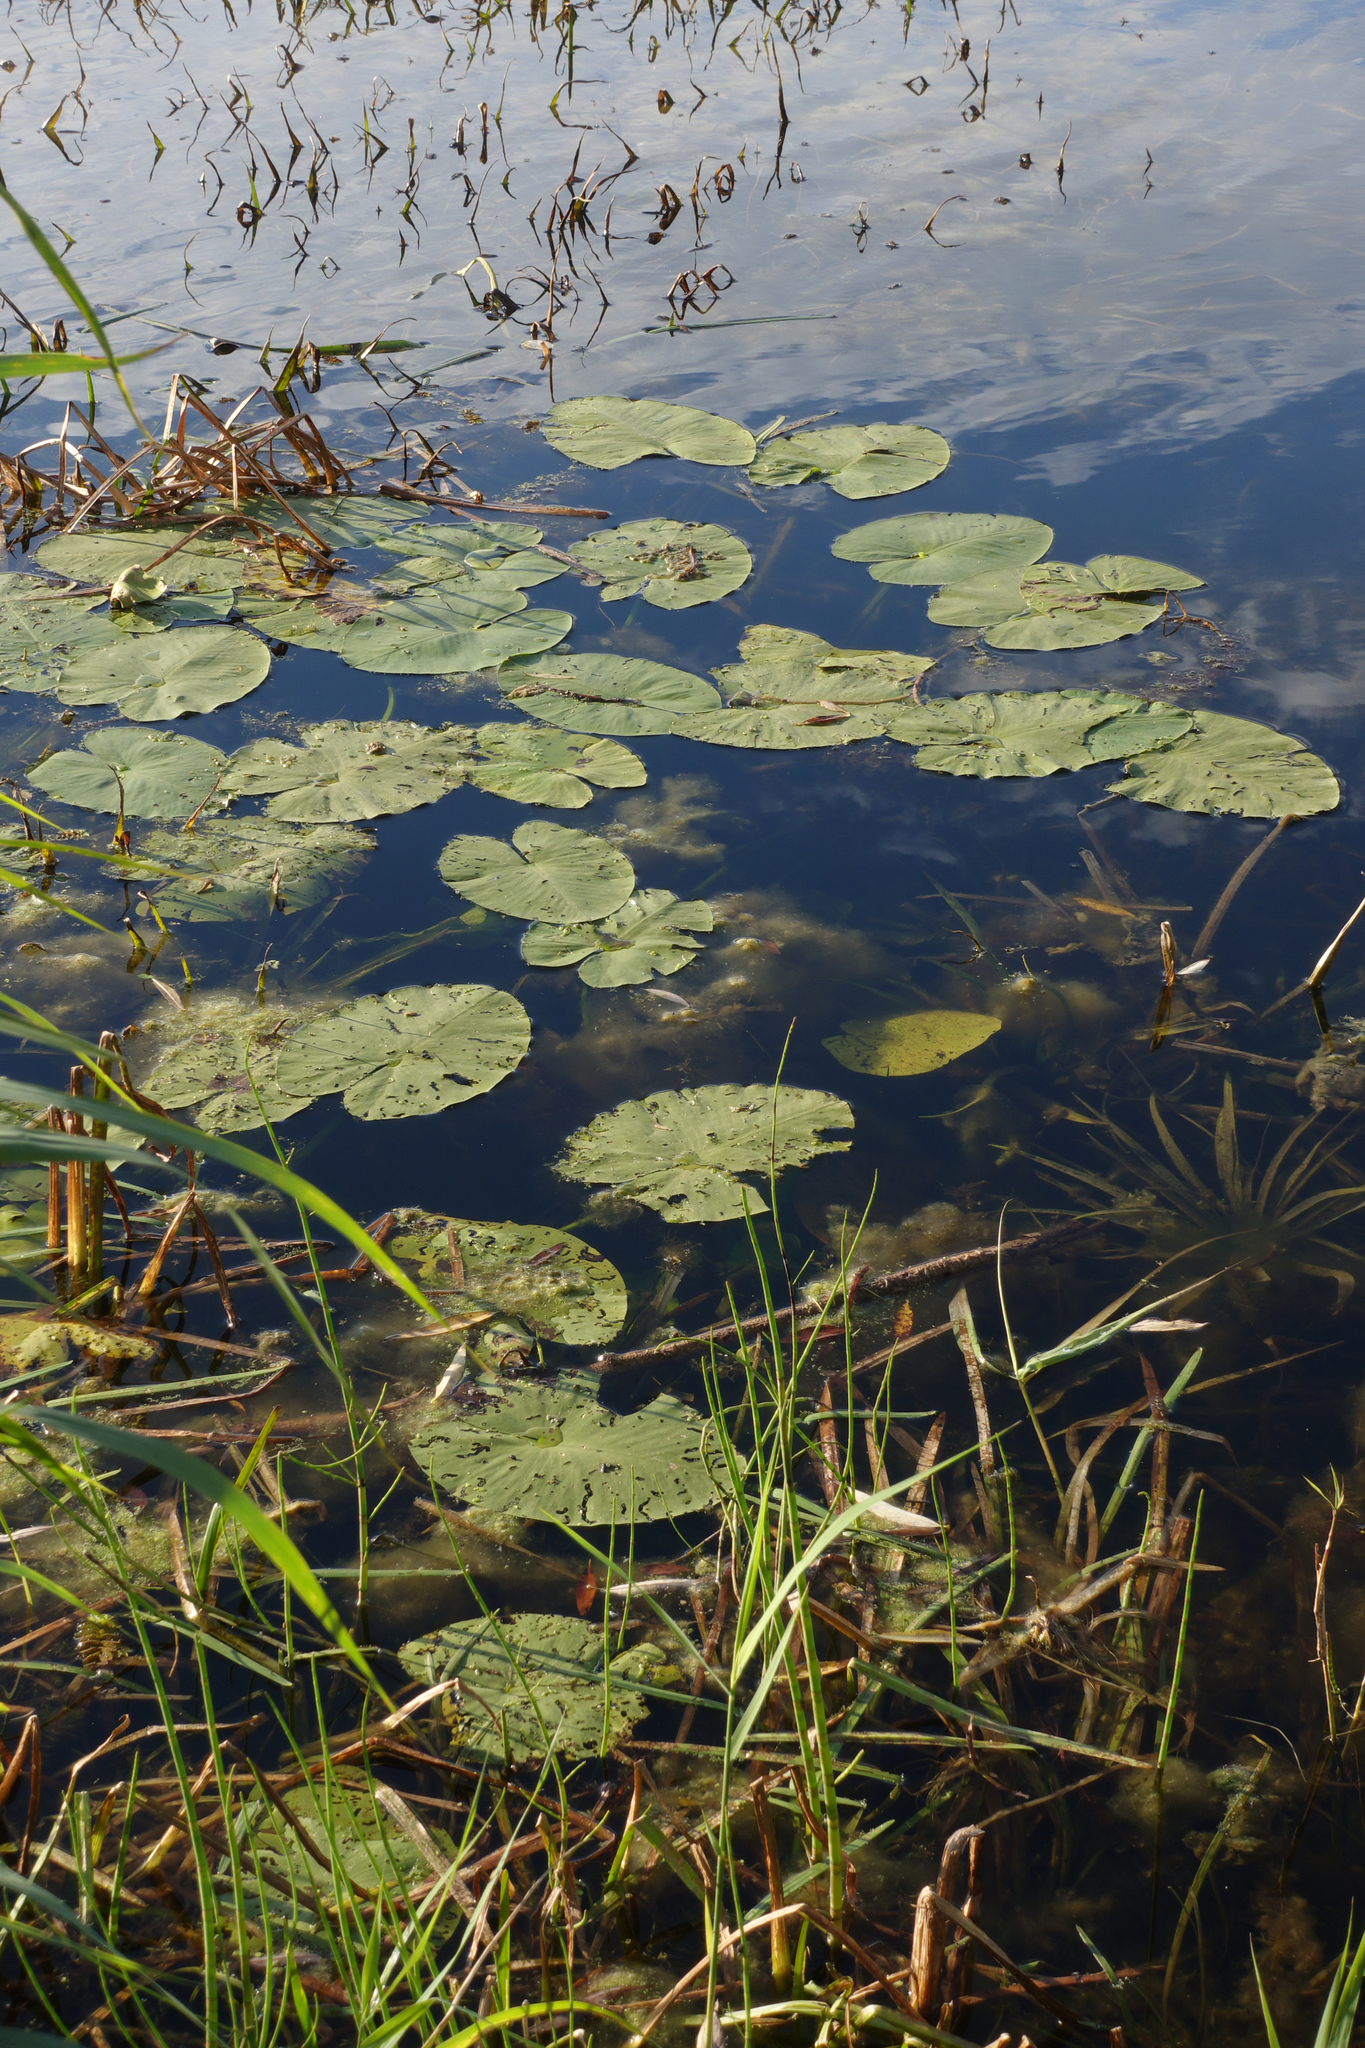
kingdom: Plantae
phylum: Tracheophyta
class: Magnoliopsida
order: Nymphaeales
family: Nymphaeaceae
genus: Nuphar
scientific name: Nuphar lutea
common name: Yellow water-lily
